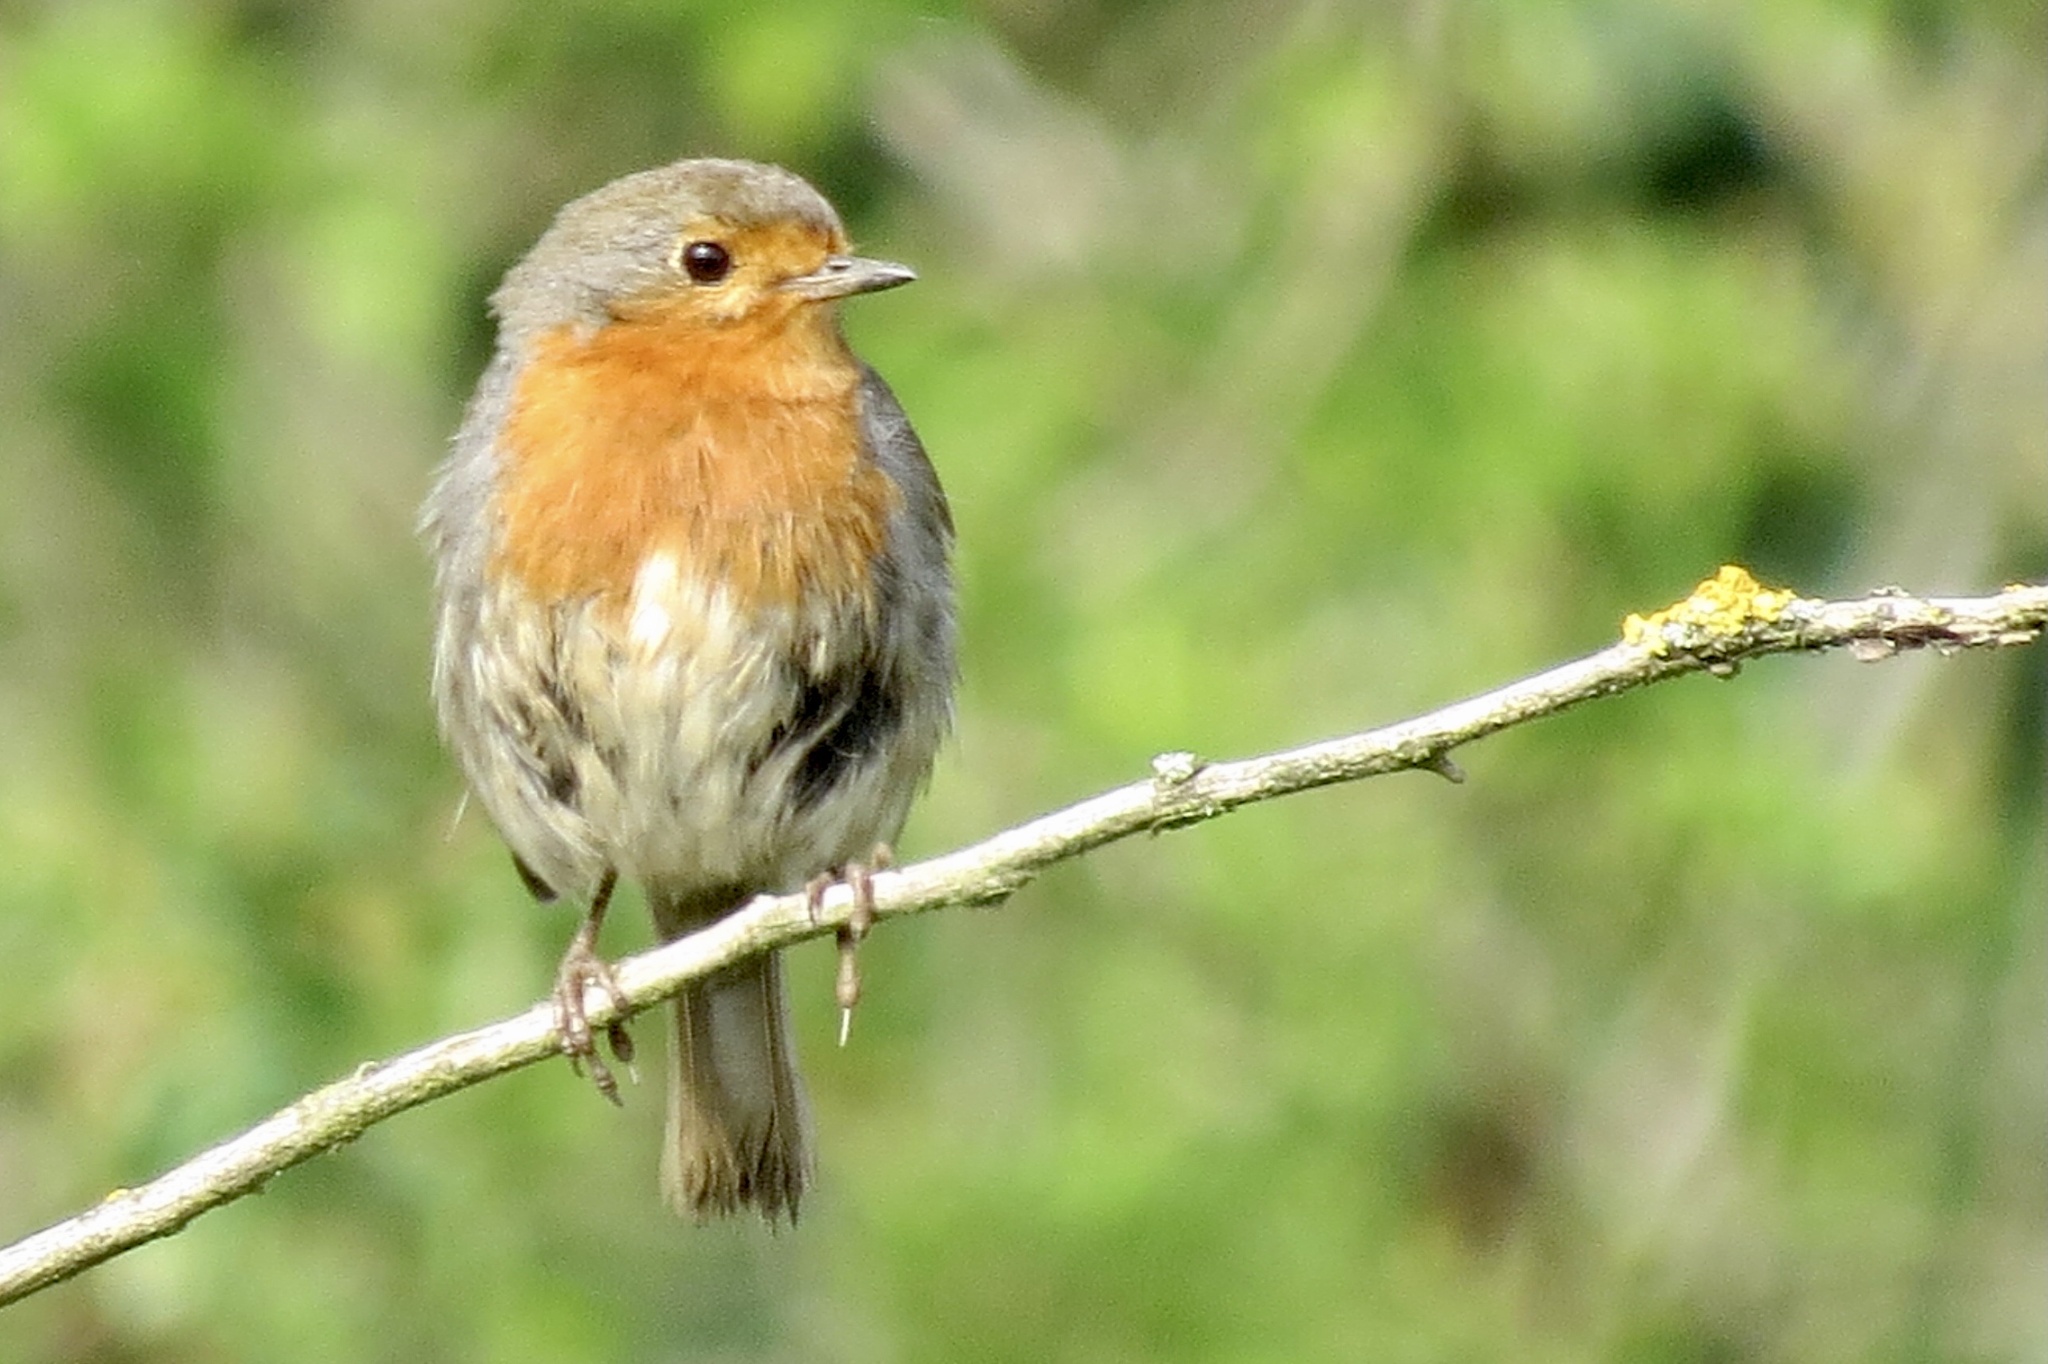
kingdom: Animalia
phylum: Chordata
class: Aves
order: Passeriformes
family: Muscicapidae
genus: Erithacus
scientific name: Erithacus rubecula
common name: European robin
